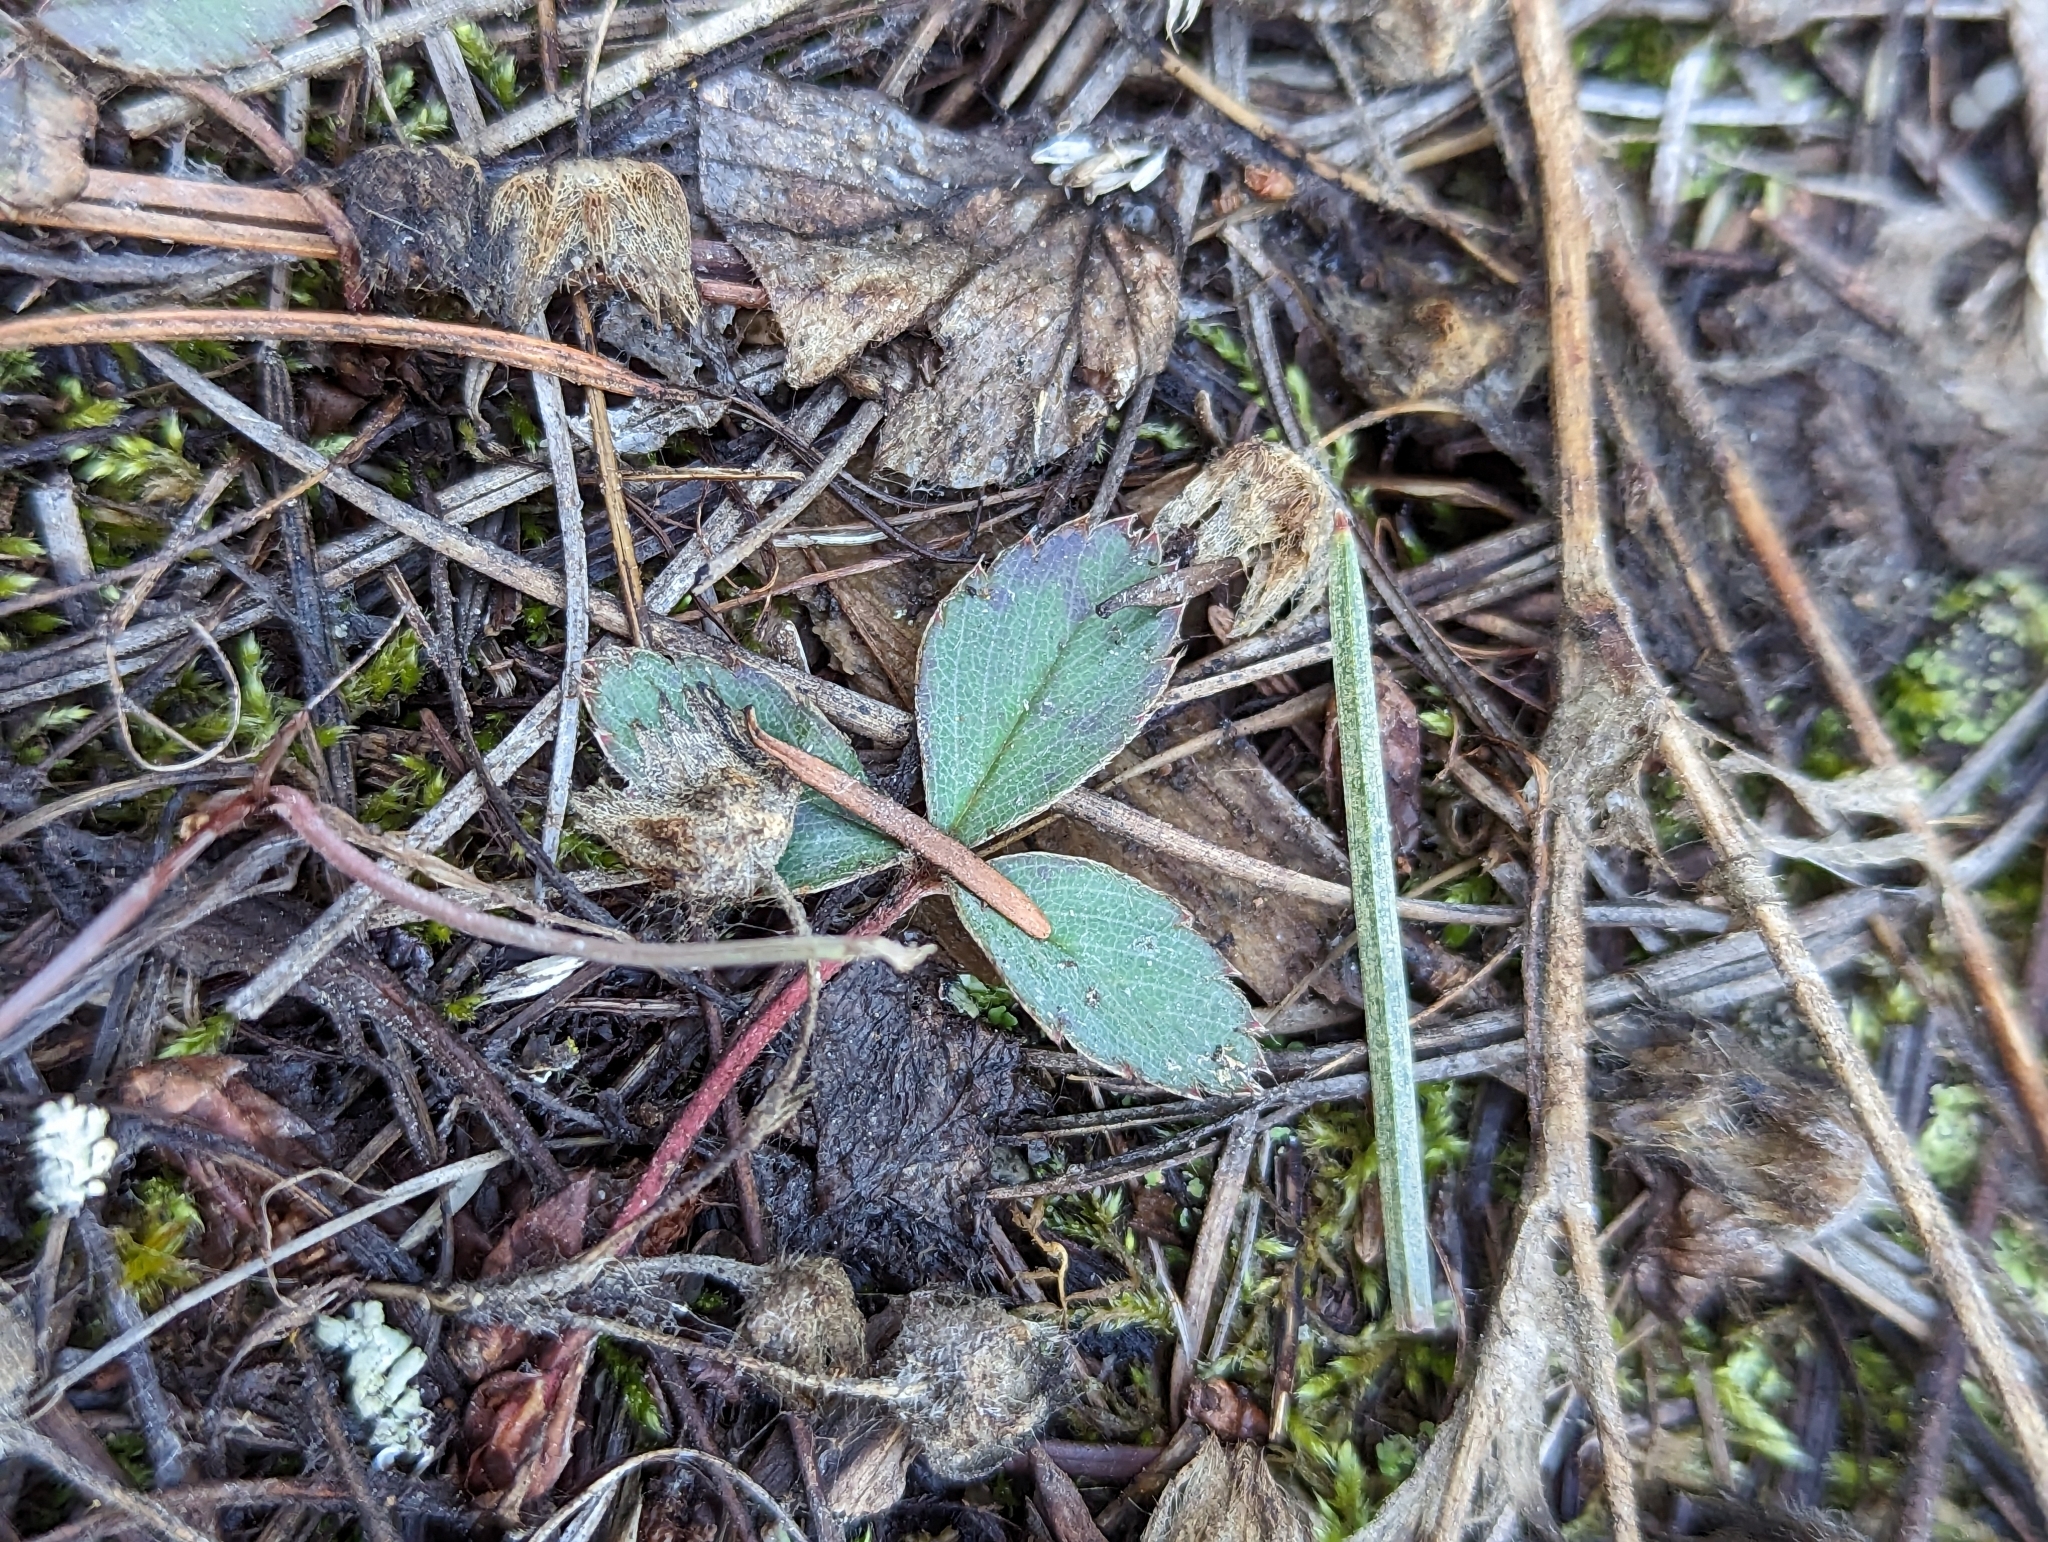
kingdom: Plantae
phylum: Tracheophyta
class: Magnoliopsida
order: Rosales
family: Rosaceae
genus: Fragaria
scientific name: Fragaria virginiana
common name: Thickleaved wild strawberry
